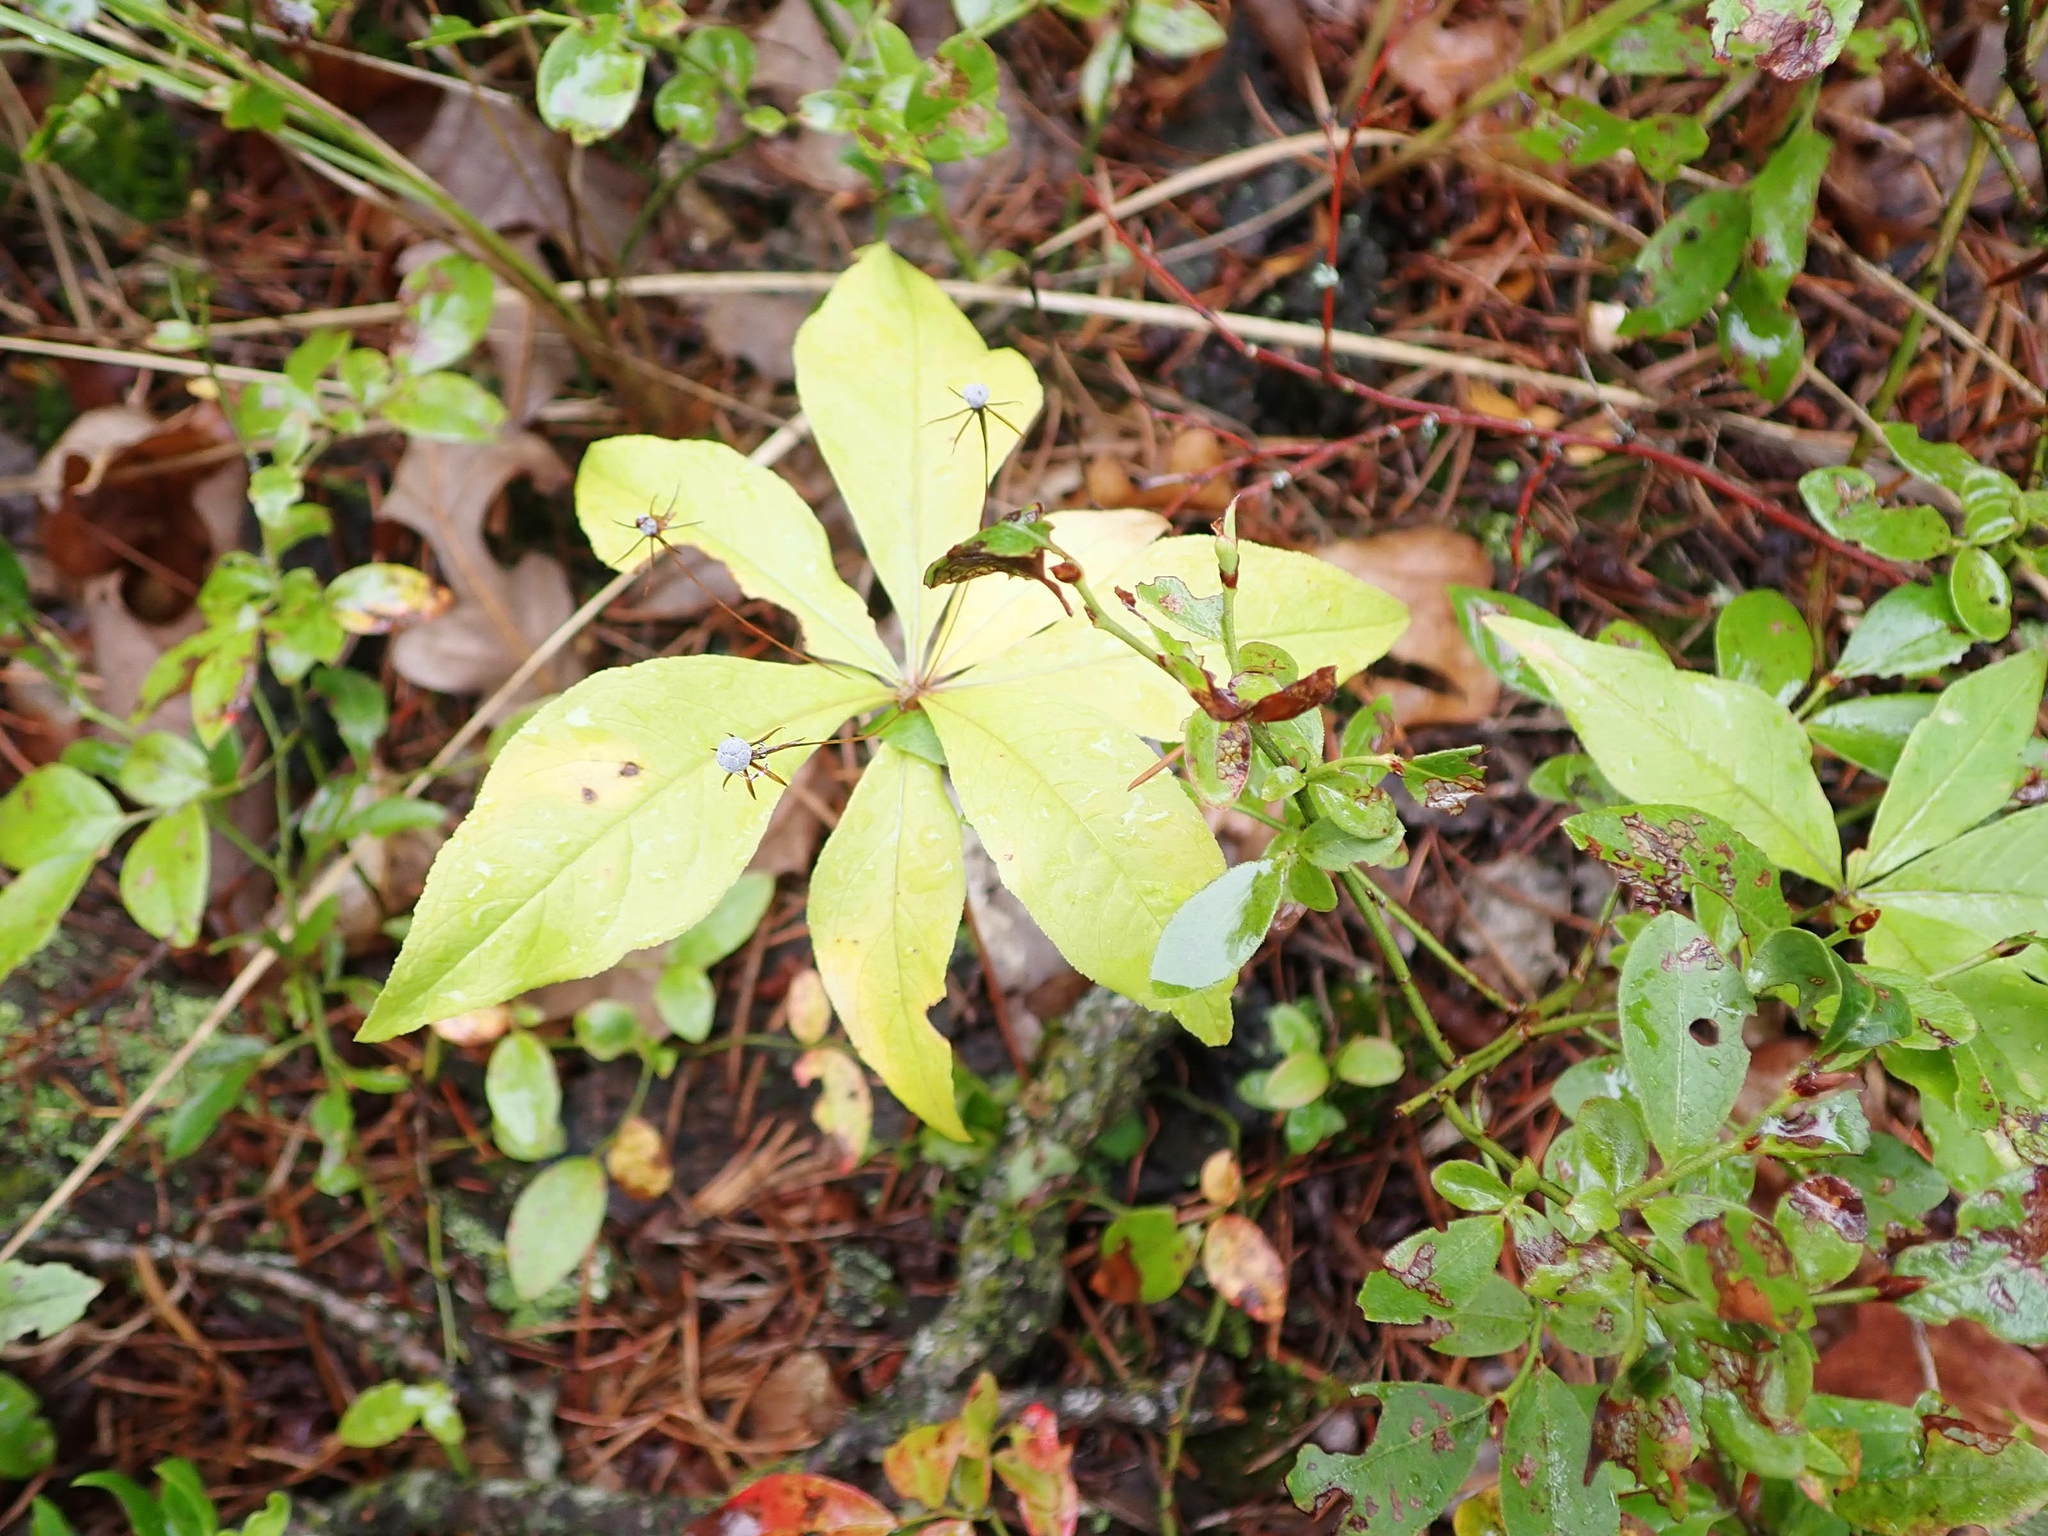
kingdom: Plantae
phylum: Tracheophyta
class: Magnoliopsida
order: Ericales
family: Primulaceae
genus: Lysimachia
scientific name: Lysimachia borealis
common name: American starflower
